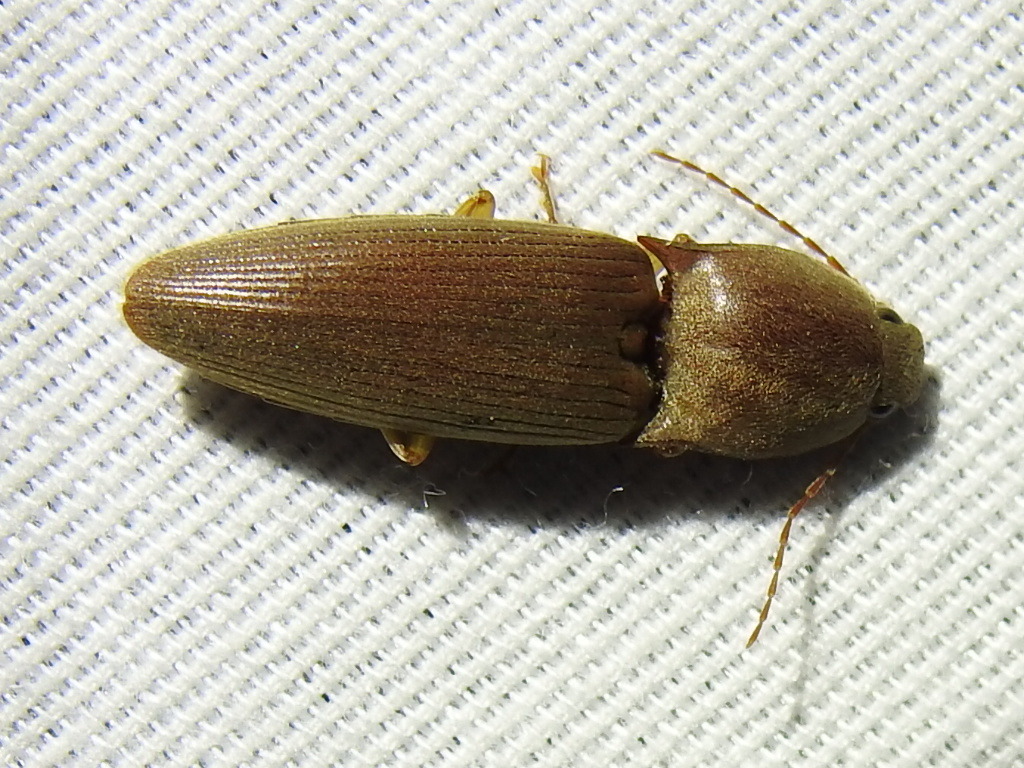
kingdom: Animalia
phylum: Arthropoda
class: Insecta
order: Coleoptera
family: Elateridae
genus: Monocrepidius
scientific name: Monocrepidius lividus
